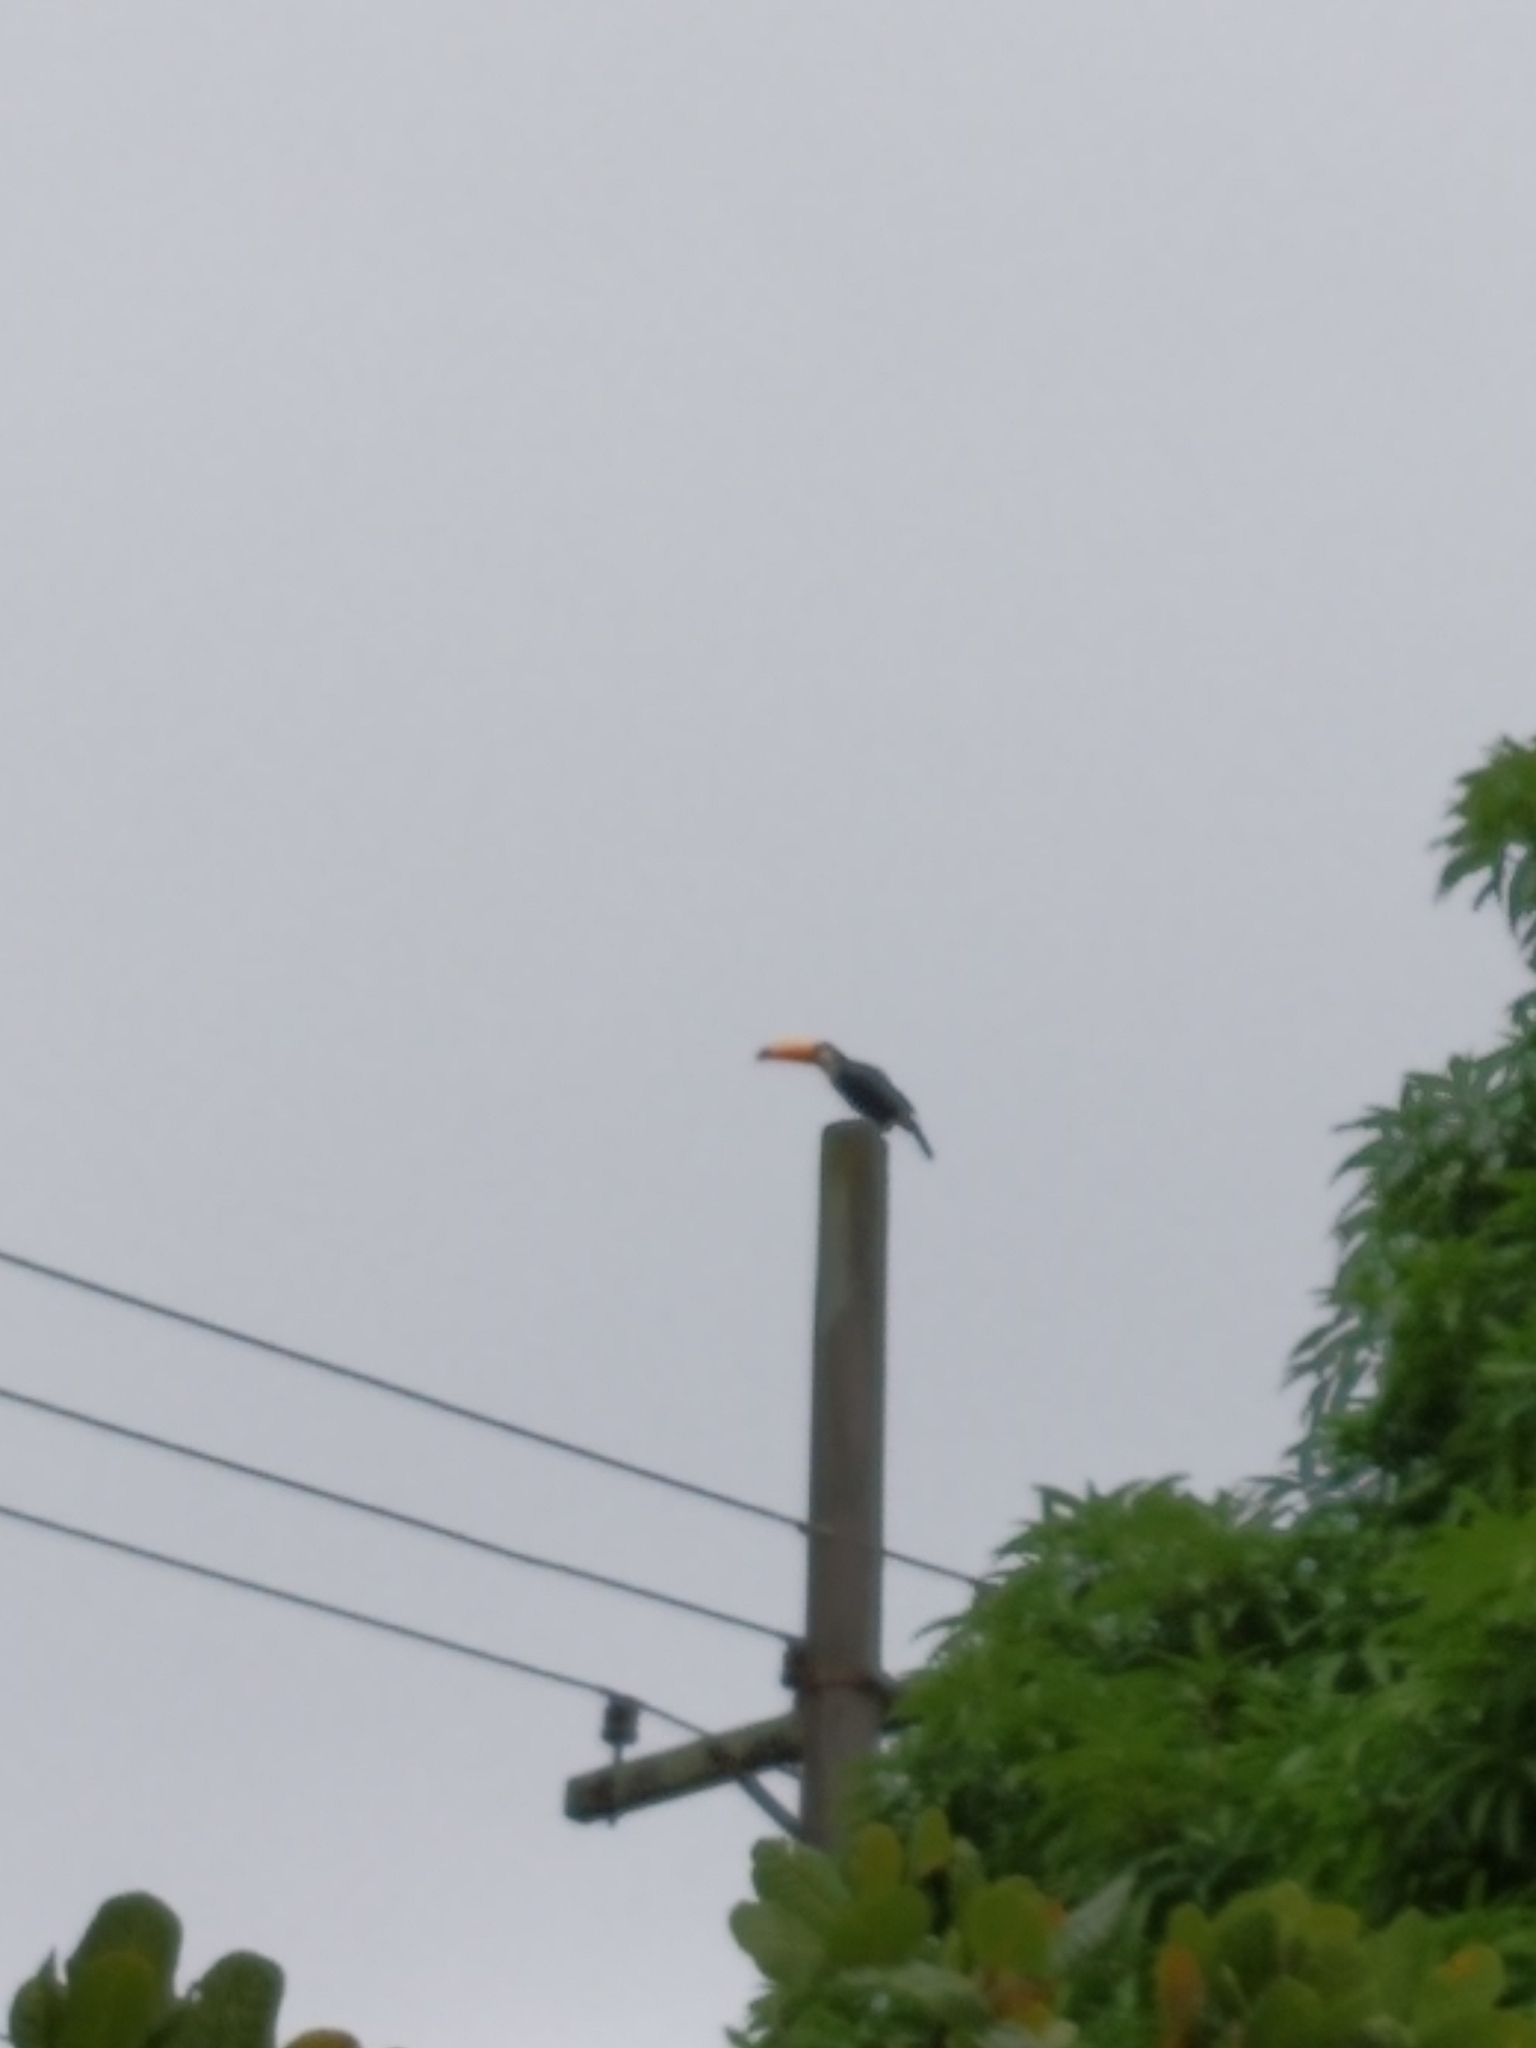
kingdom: Animalia
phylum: Chordata
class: Aves
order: Piciformes
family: Ramphastidae
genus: Ramphastos
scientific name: Ramphastos toco
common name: Toco toucan
